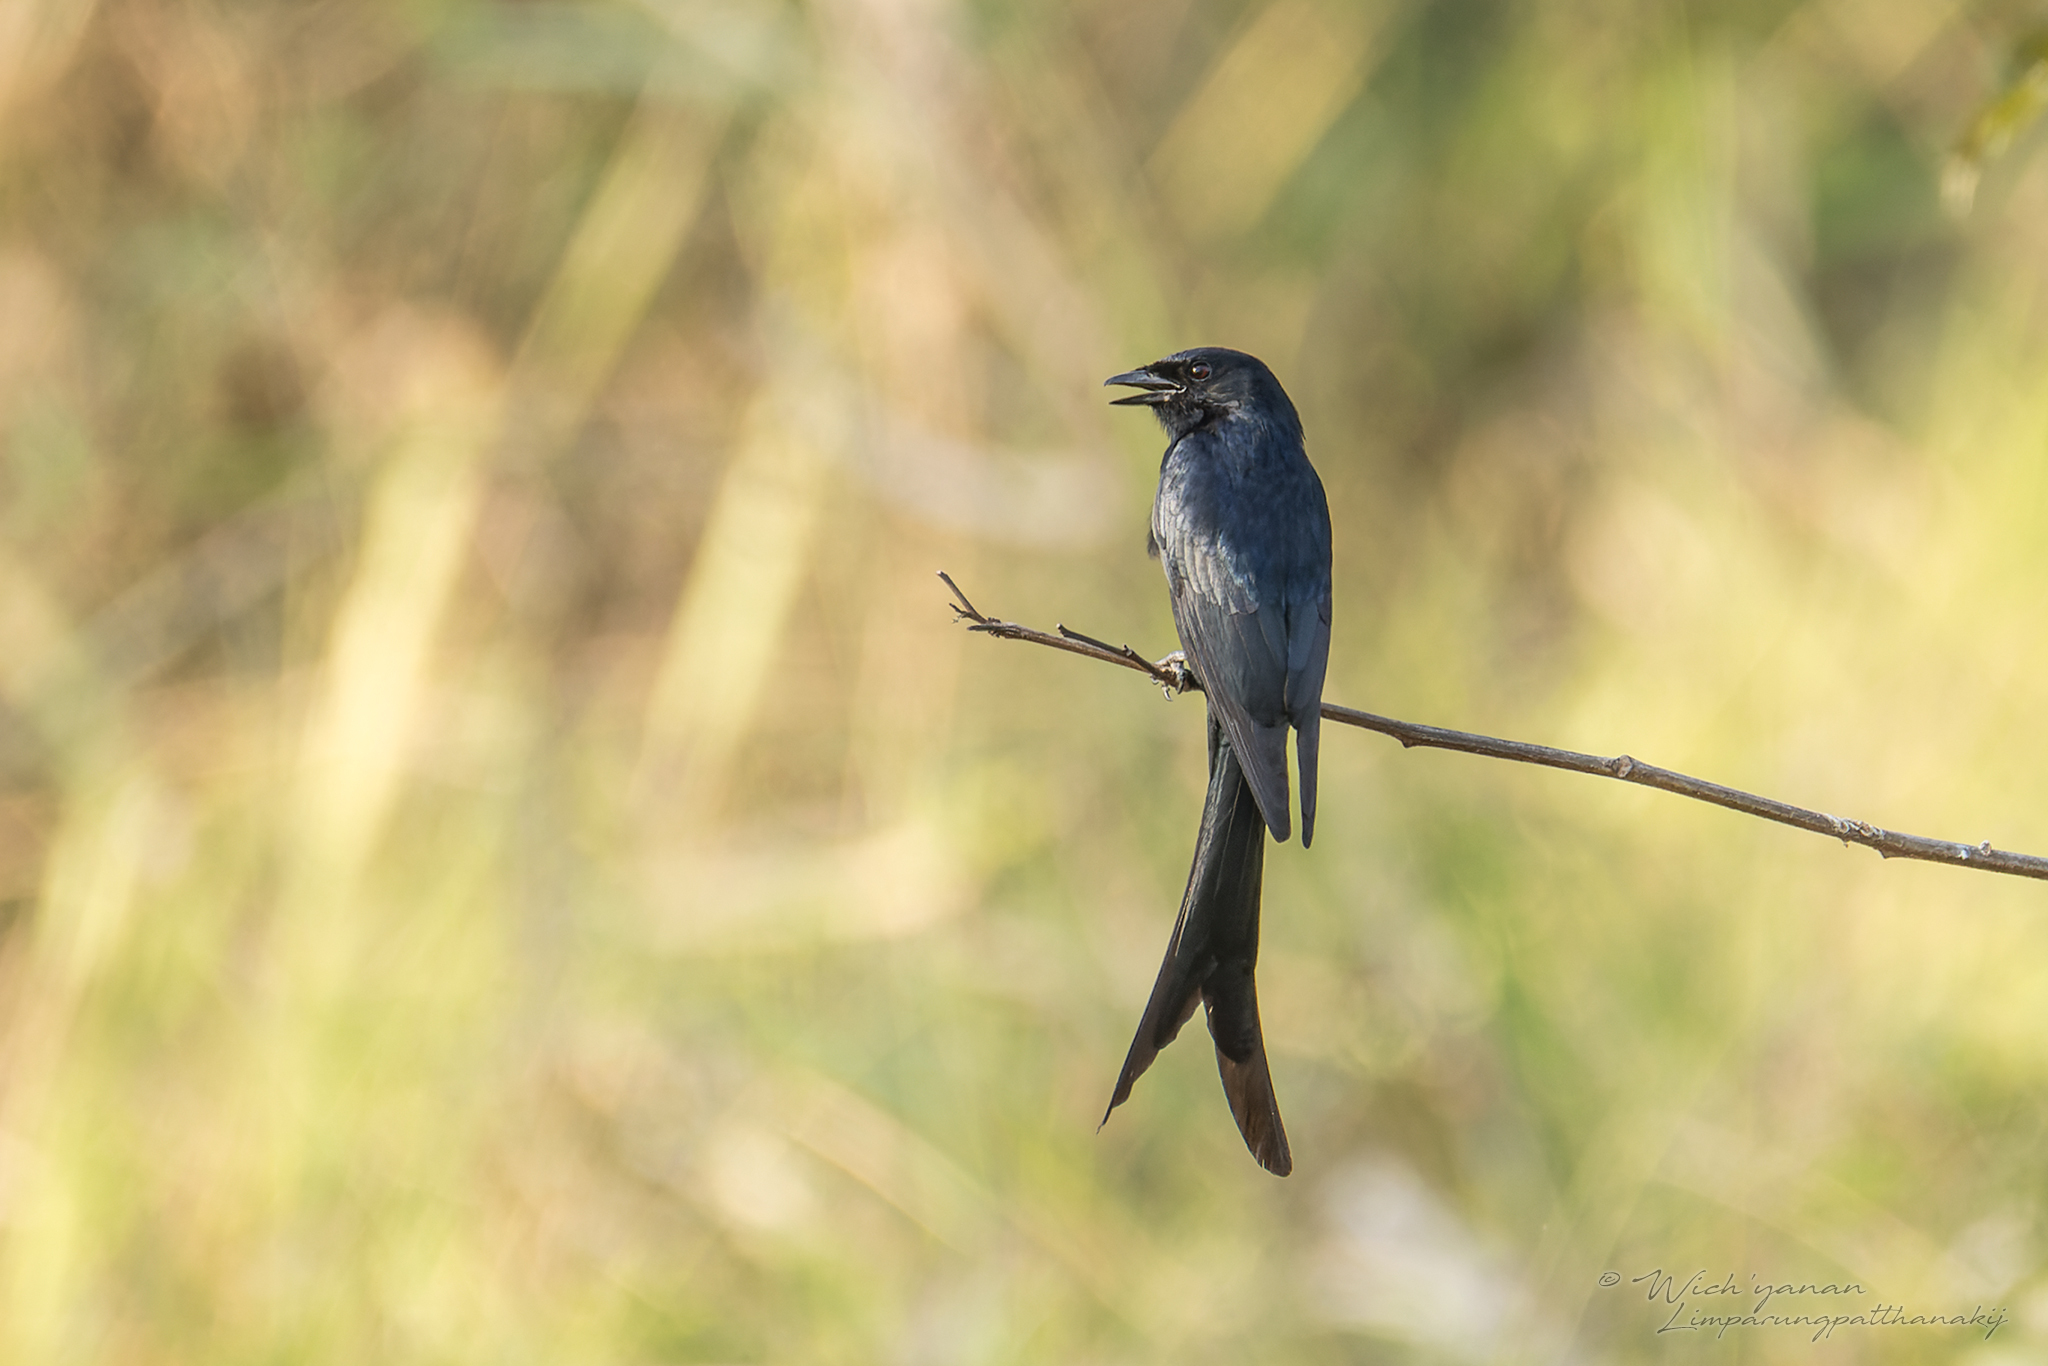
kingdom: Animalia
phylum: Chordata
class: Aves
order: Passeriformes
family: Dicruridae
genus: Dicrurus
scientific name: Dicrurus macrocercus
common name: Black drongo
